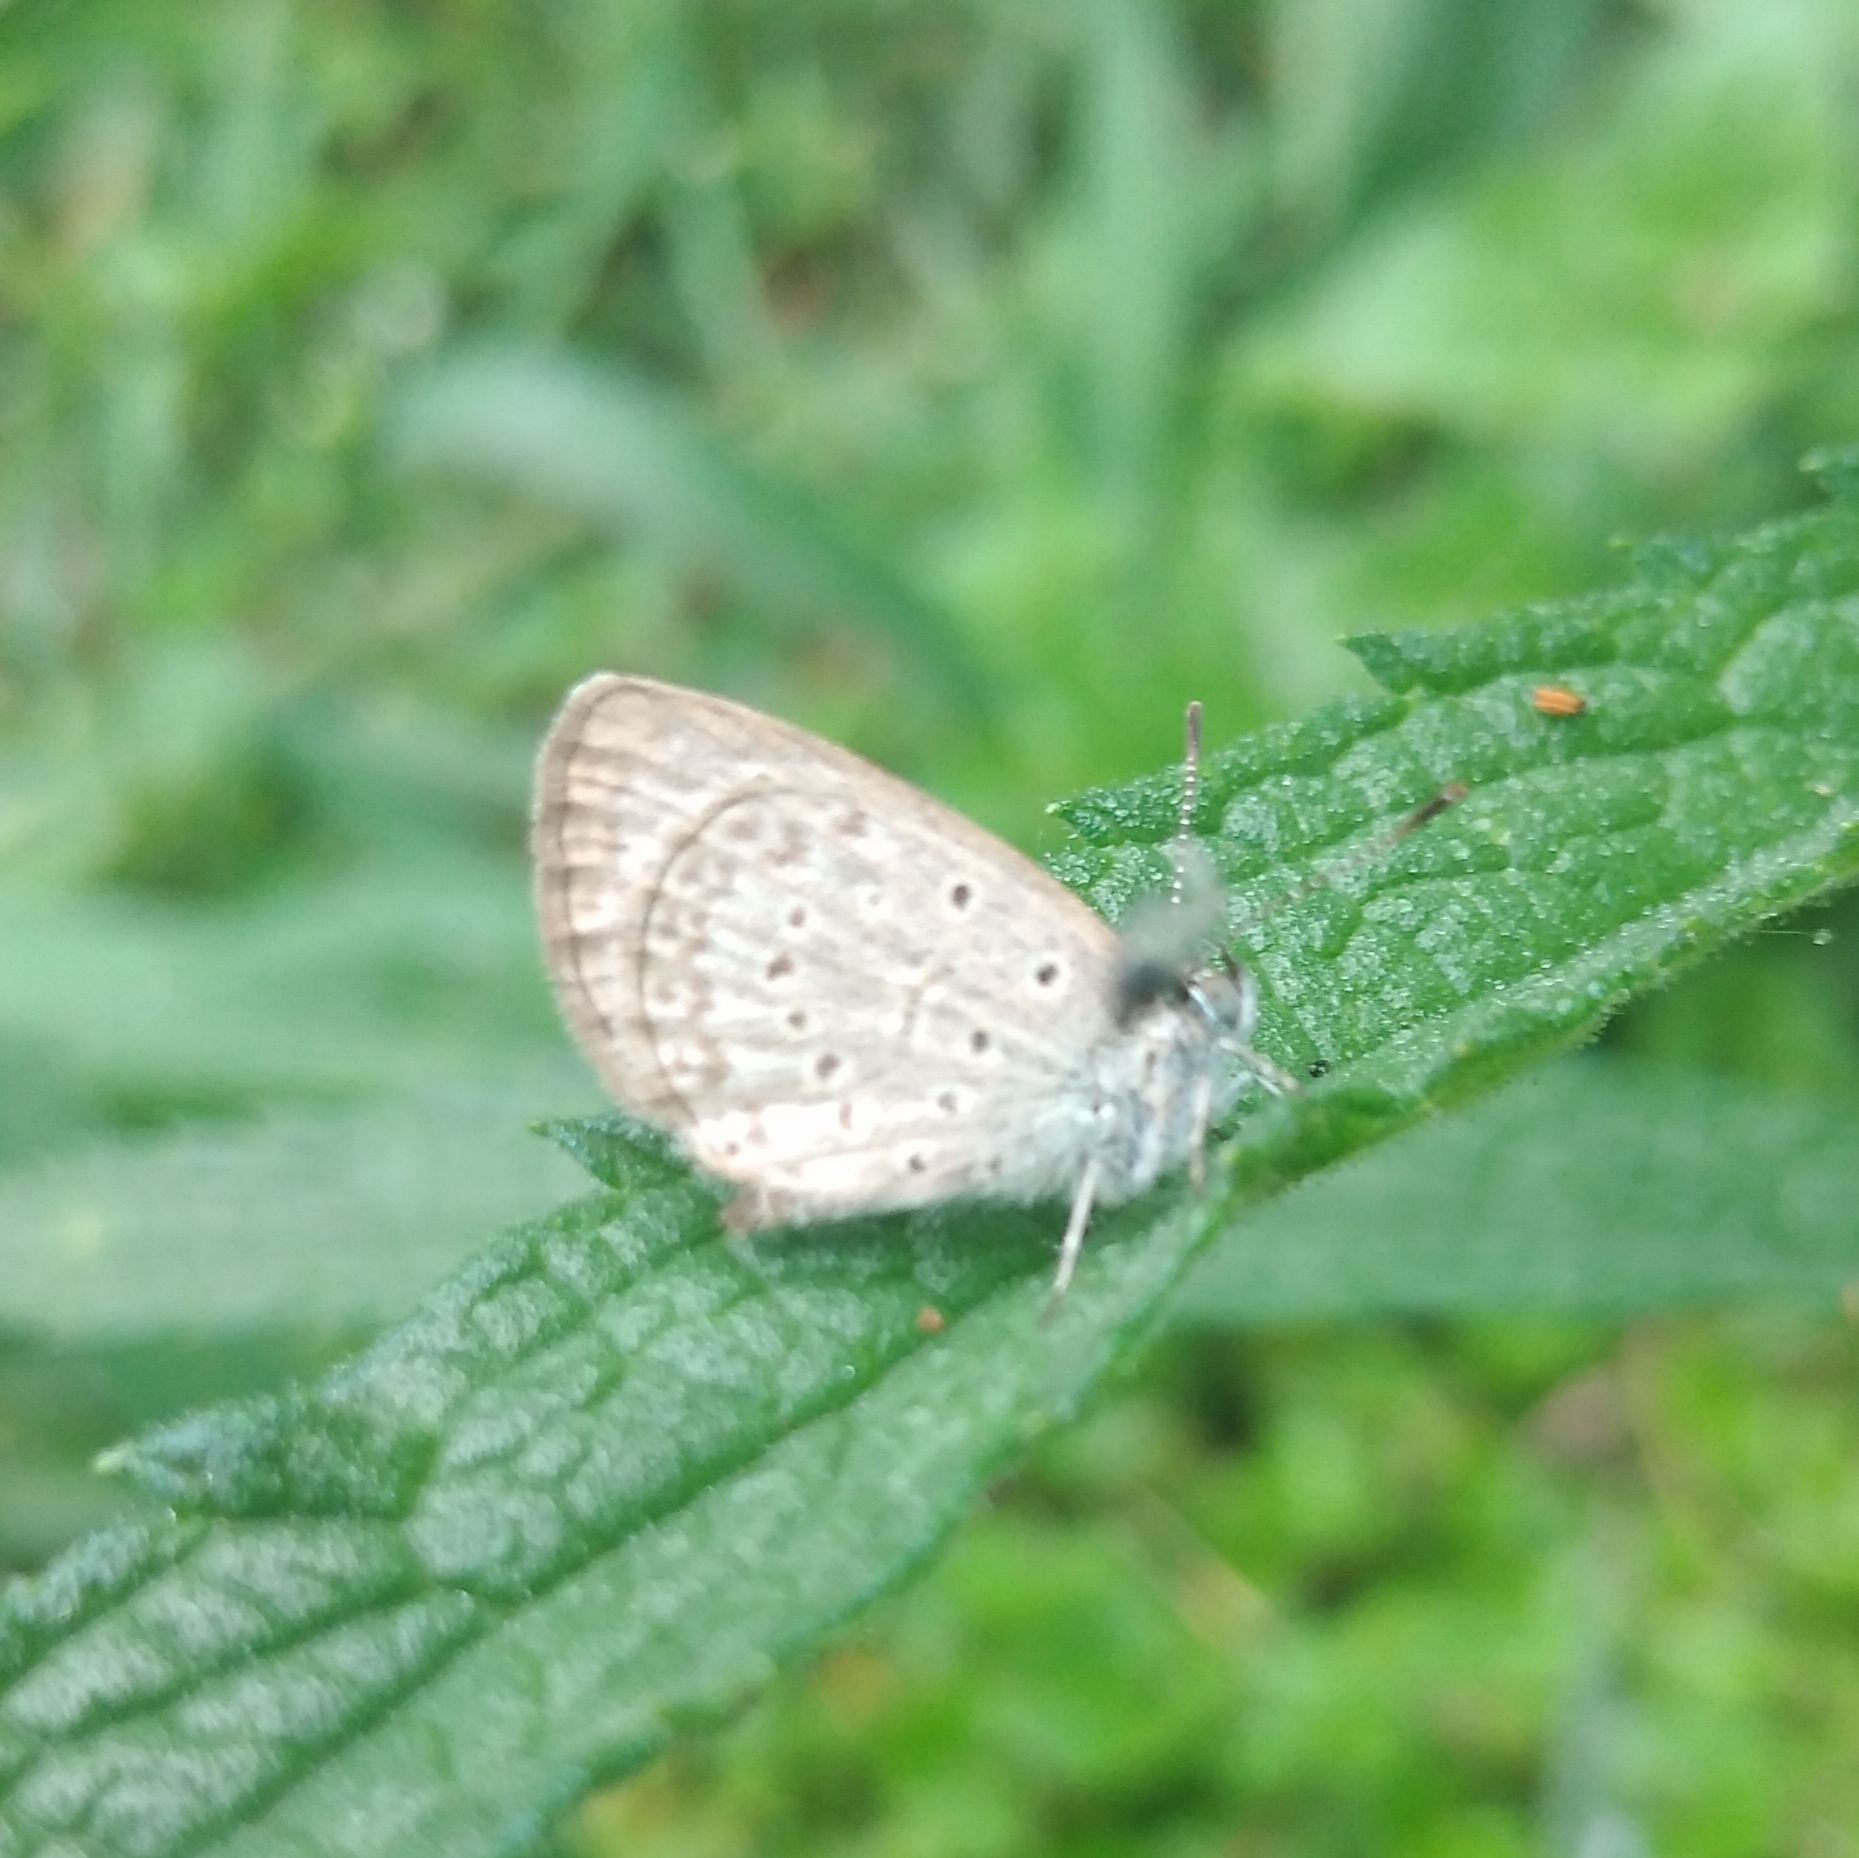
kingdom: Animalia
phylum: Arthropoda
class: Insecta
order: Lepidoptera
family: Lycaenidae
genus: Zizeeria
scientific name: Zizeeria knysna
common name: African grass blue
